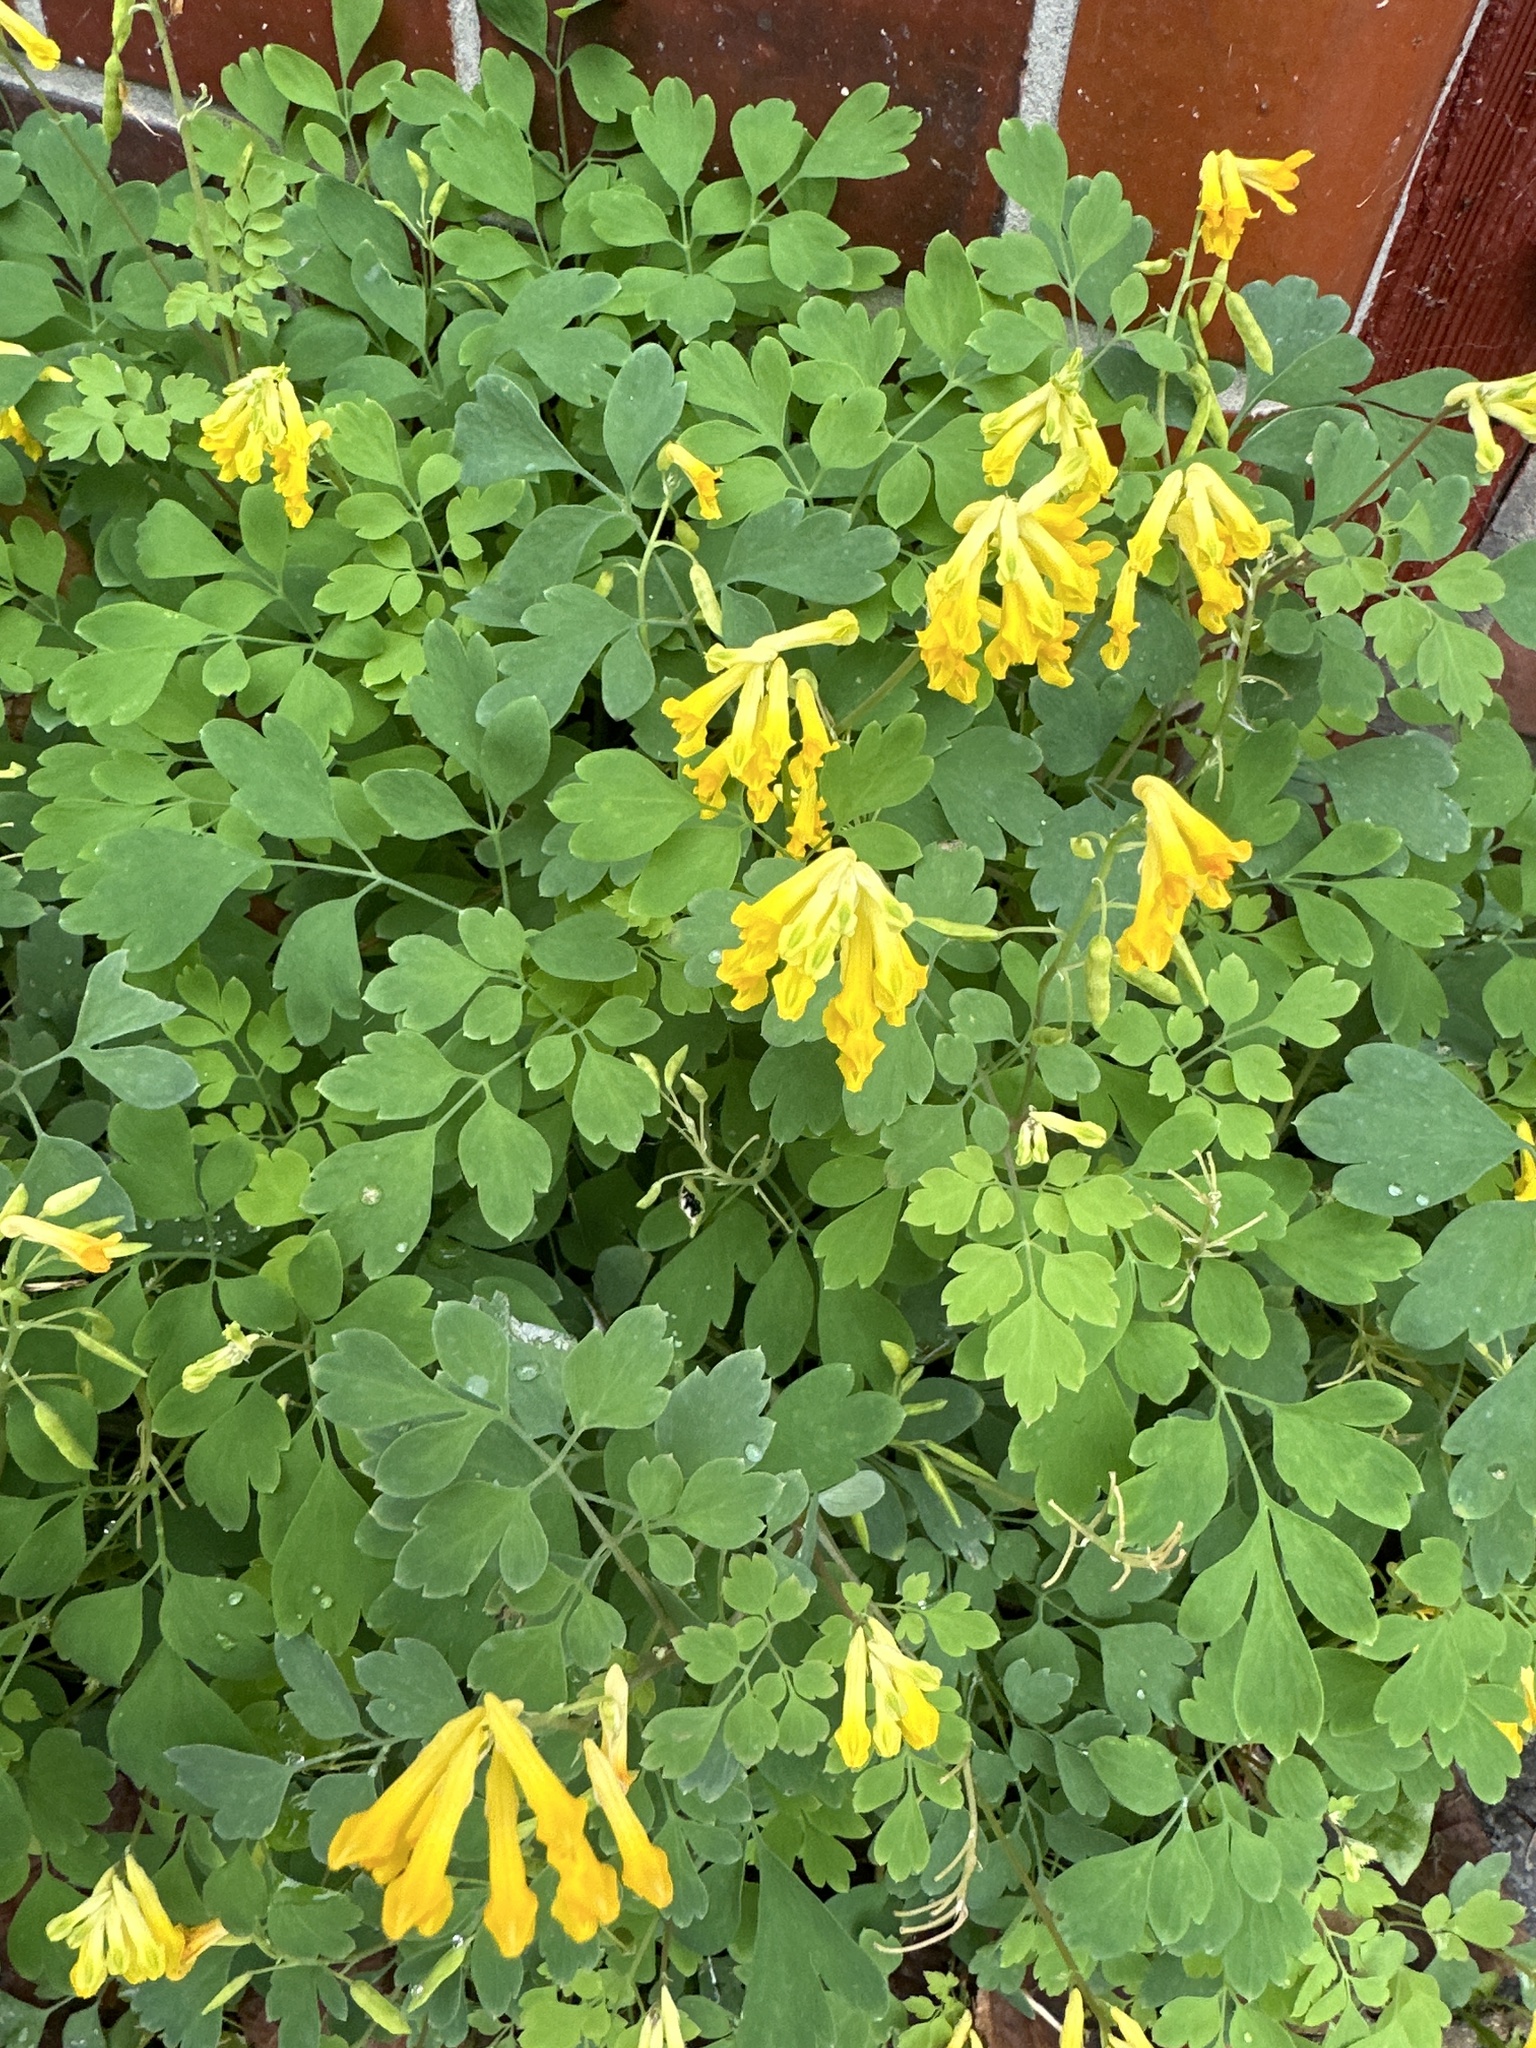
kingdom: Plantae
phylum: Tracheophyta
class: Magnoliopsida
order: Ranunculales
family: Papaveraceae
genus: Pseudofumaria
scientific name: Pseudofumaria lutea
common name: Yellow corydalis
